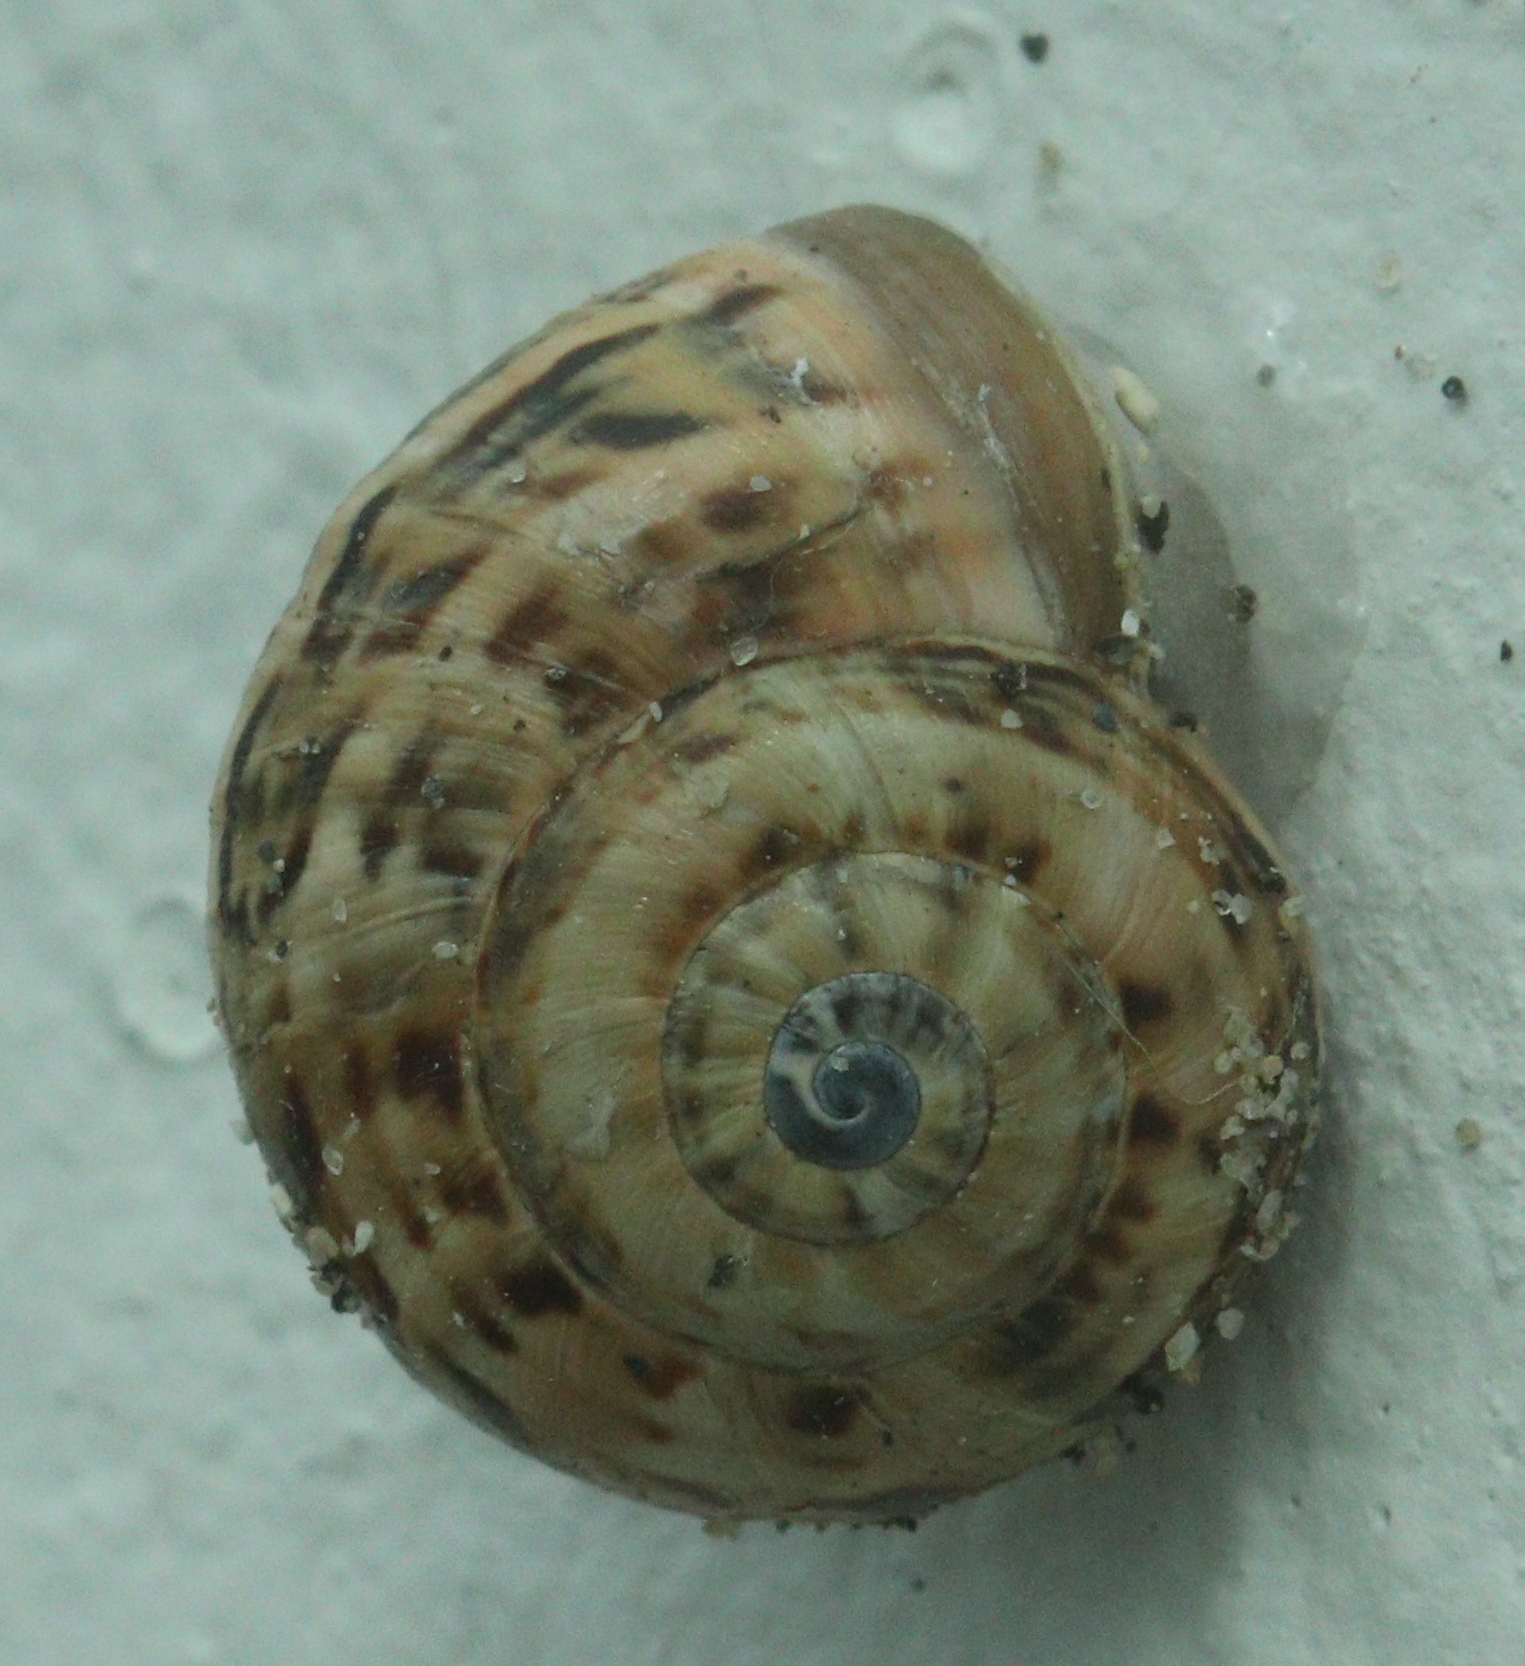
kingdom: Animalia
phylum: Mollusca
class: Gastropoda
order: Stylommatophora
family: Helicidae
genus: Theba
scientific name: Theba pisana
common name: White snail
